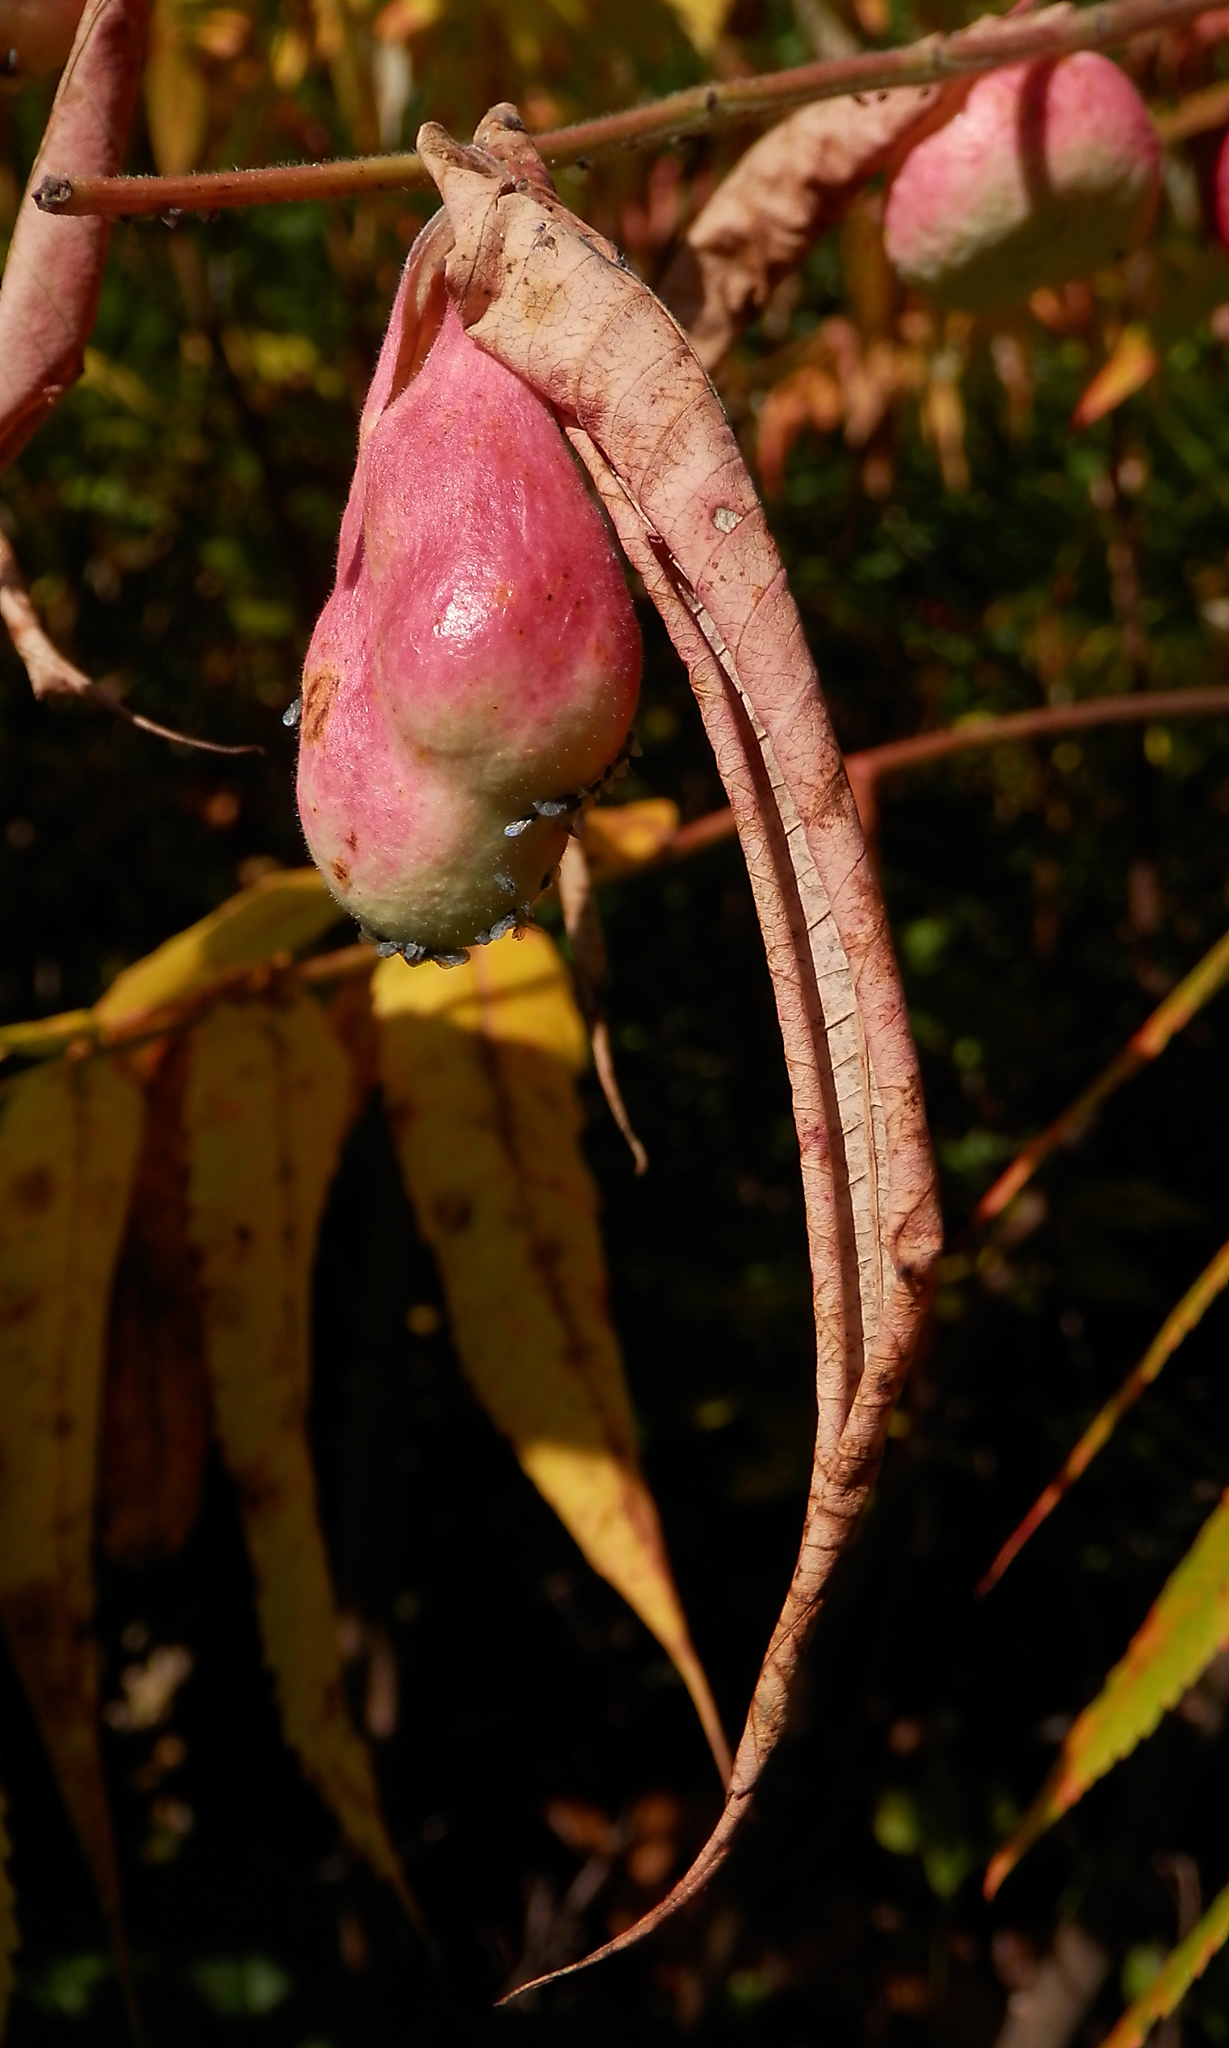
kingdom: Animalia
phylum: Arthropoda
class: Insecta
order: Hemiptera
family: Aphididae
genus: Melaphis
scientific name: Melaphis rhois
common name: Sumac gall aphid
